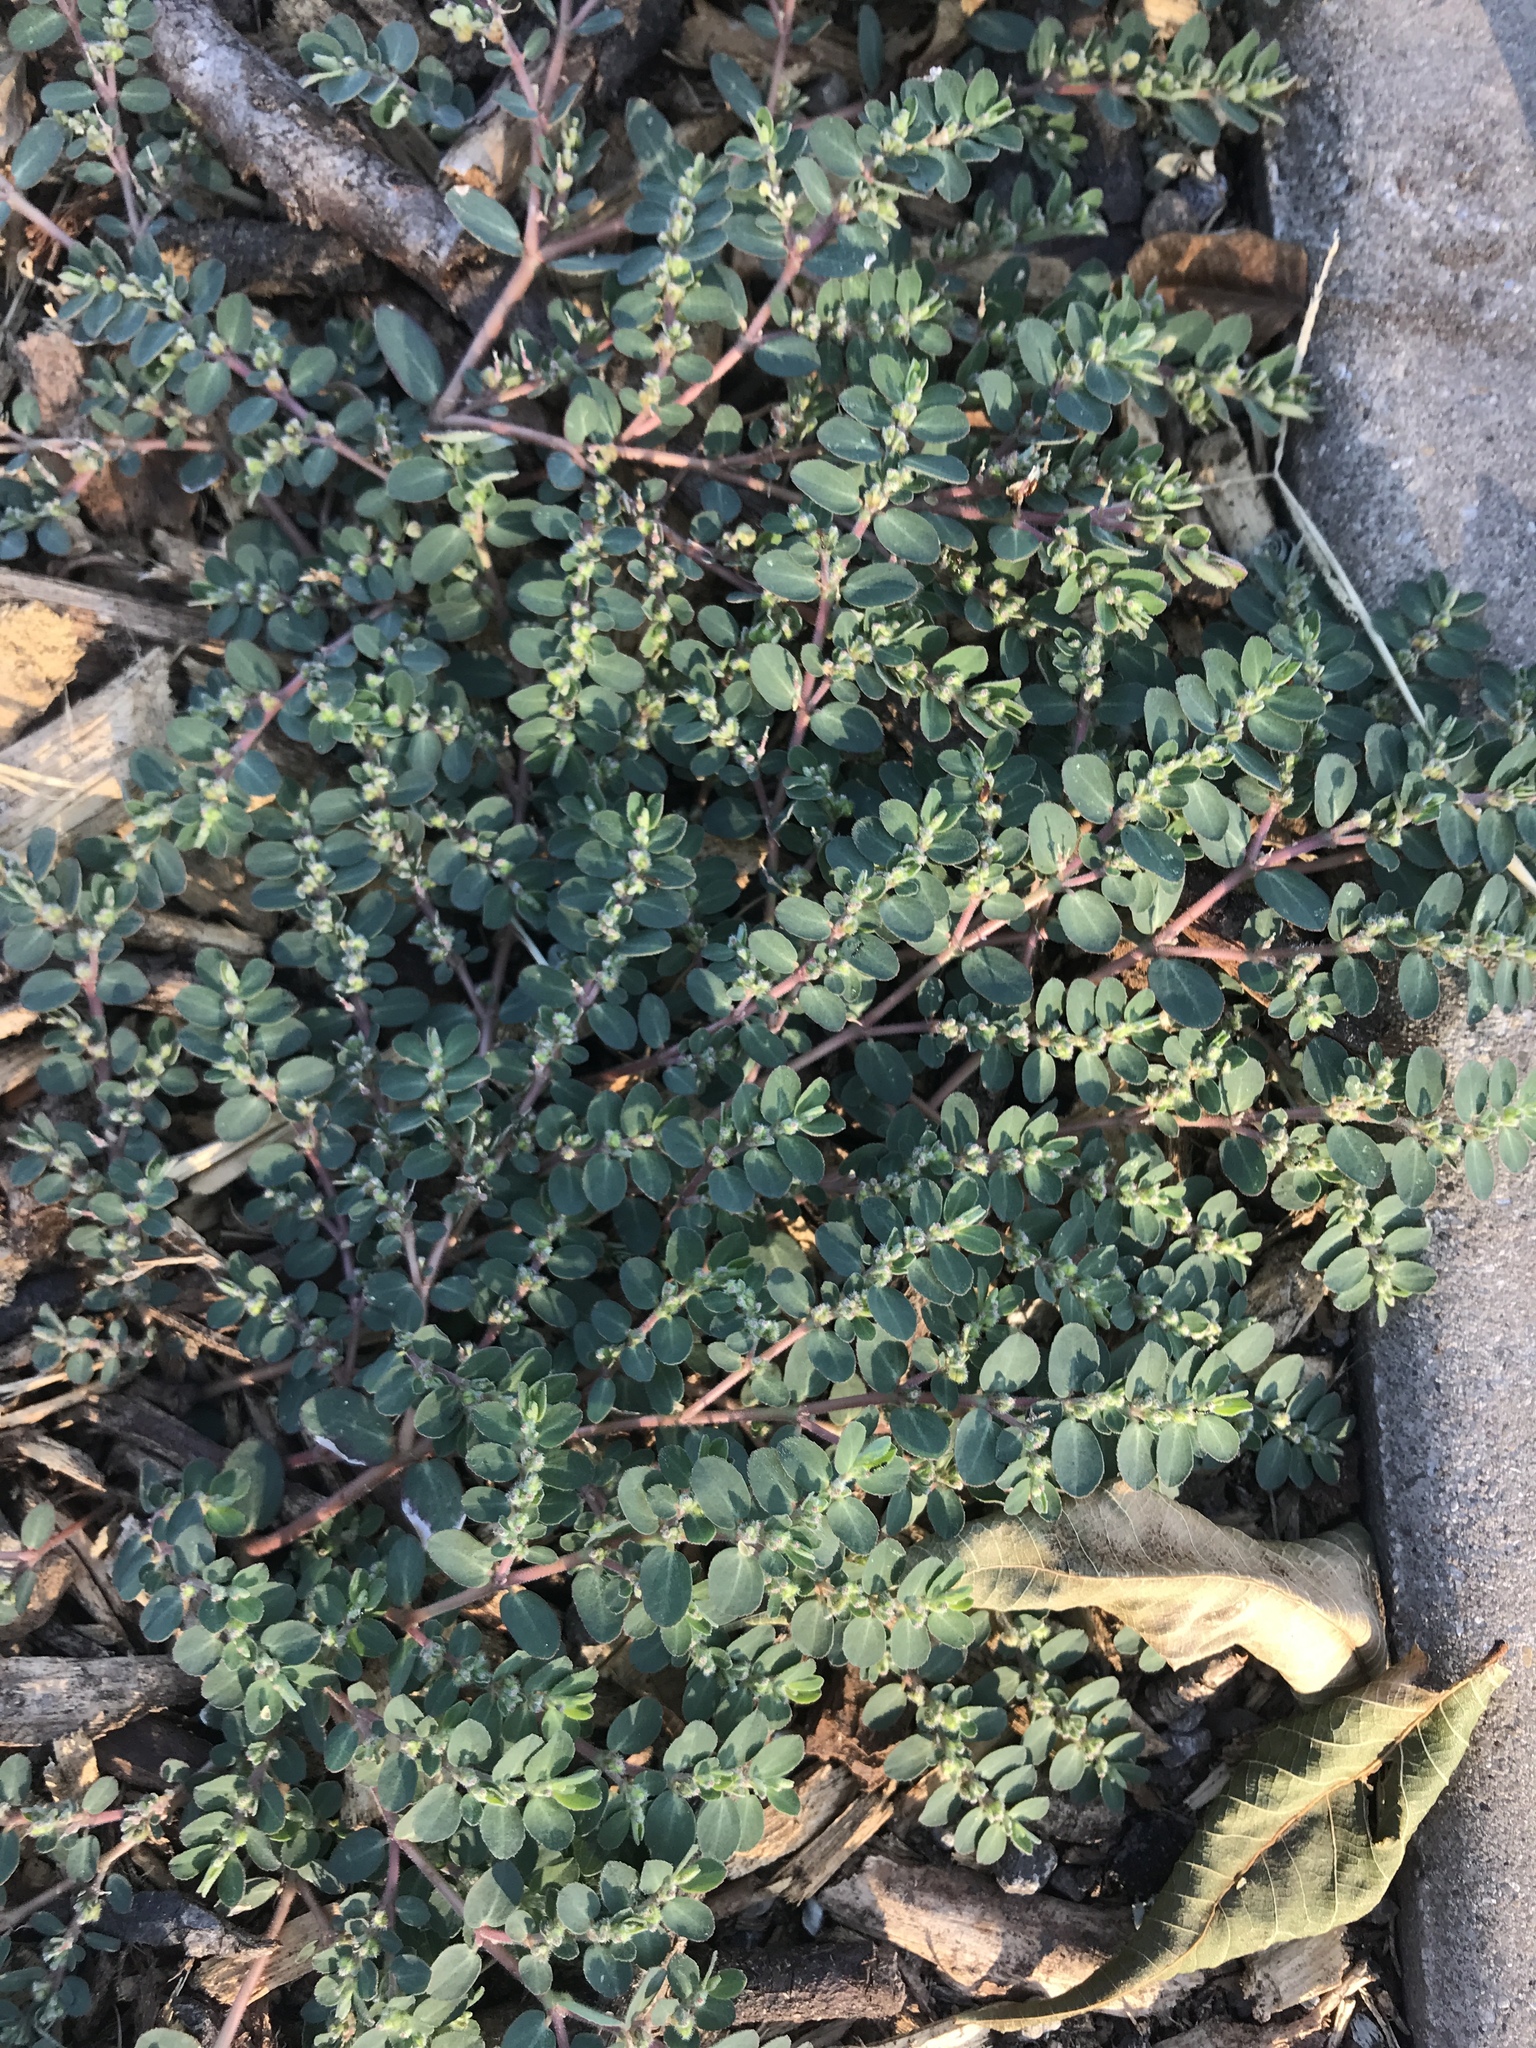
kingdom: Plantae
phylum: Tracheophyta
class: Magnoliopsida
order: Malpighiales
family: Euphorbiaceae
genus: Euphorbia
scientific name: Euphorbia prostrata
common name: Prostrate sandmat
